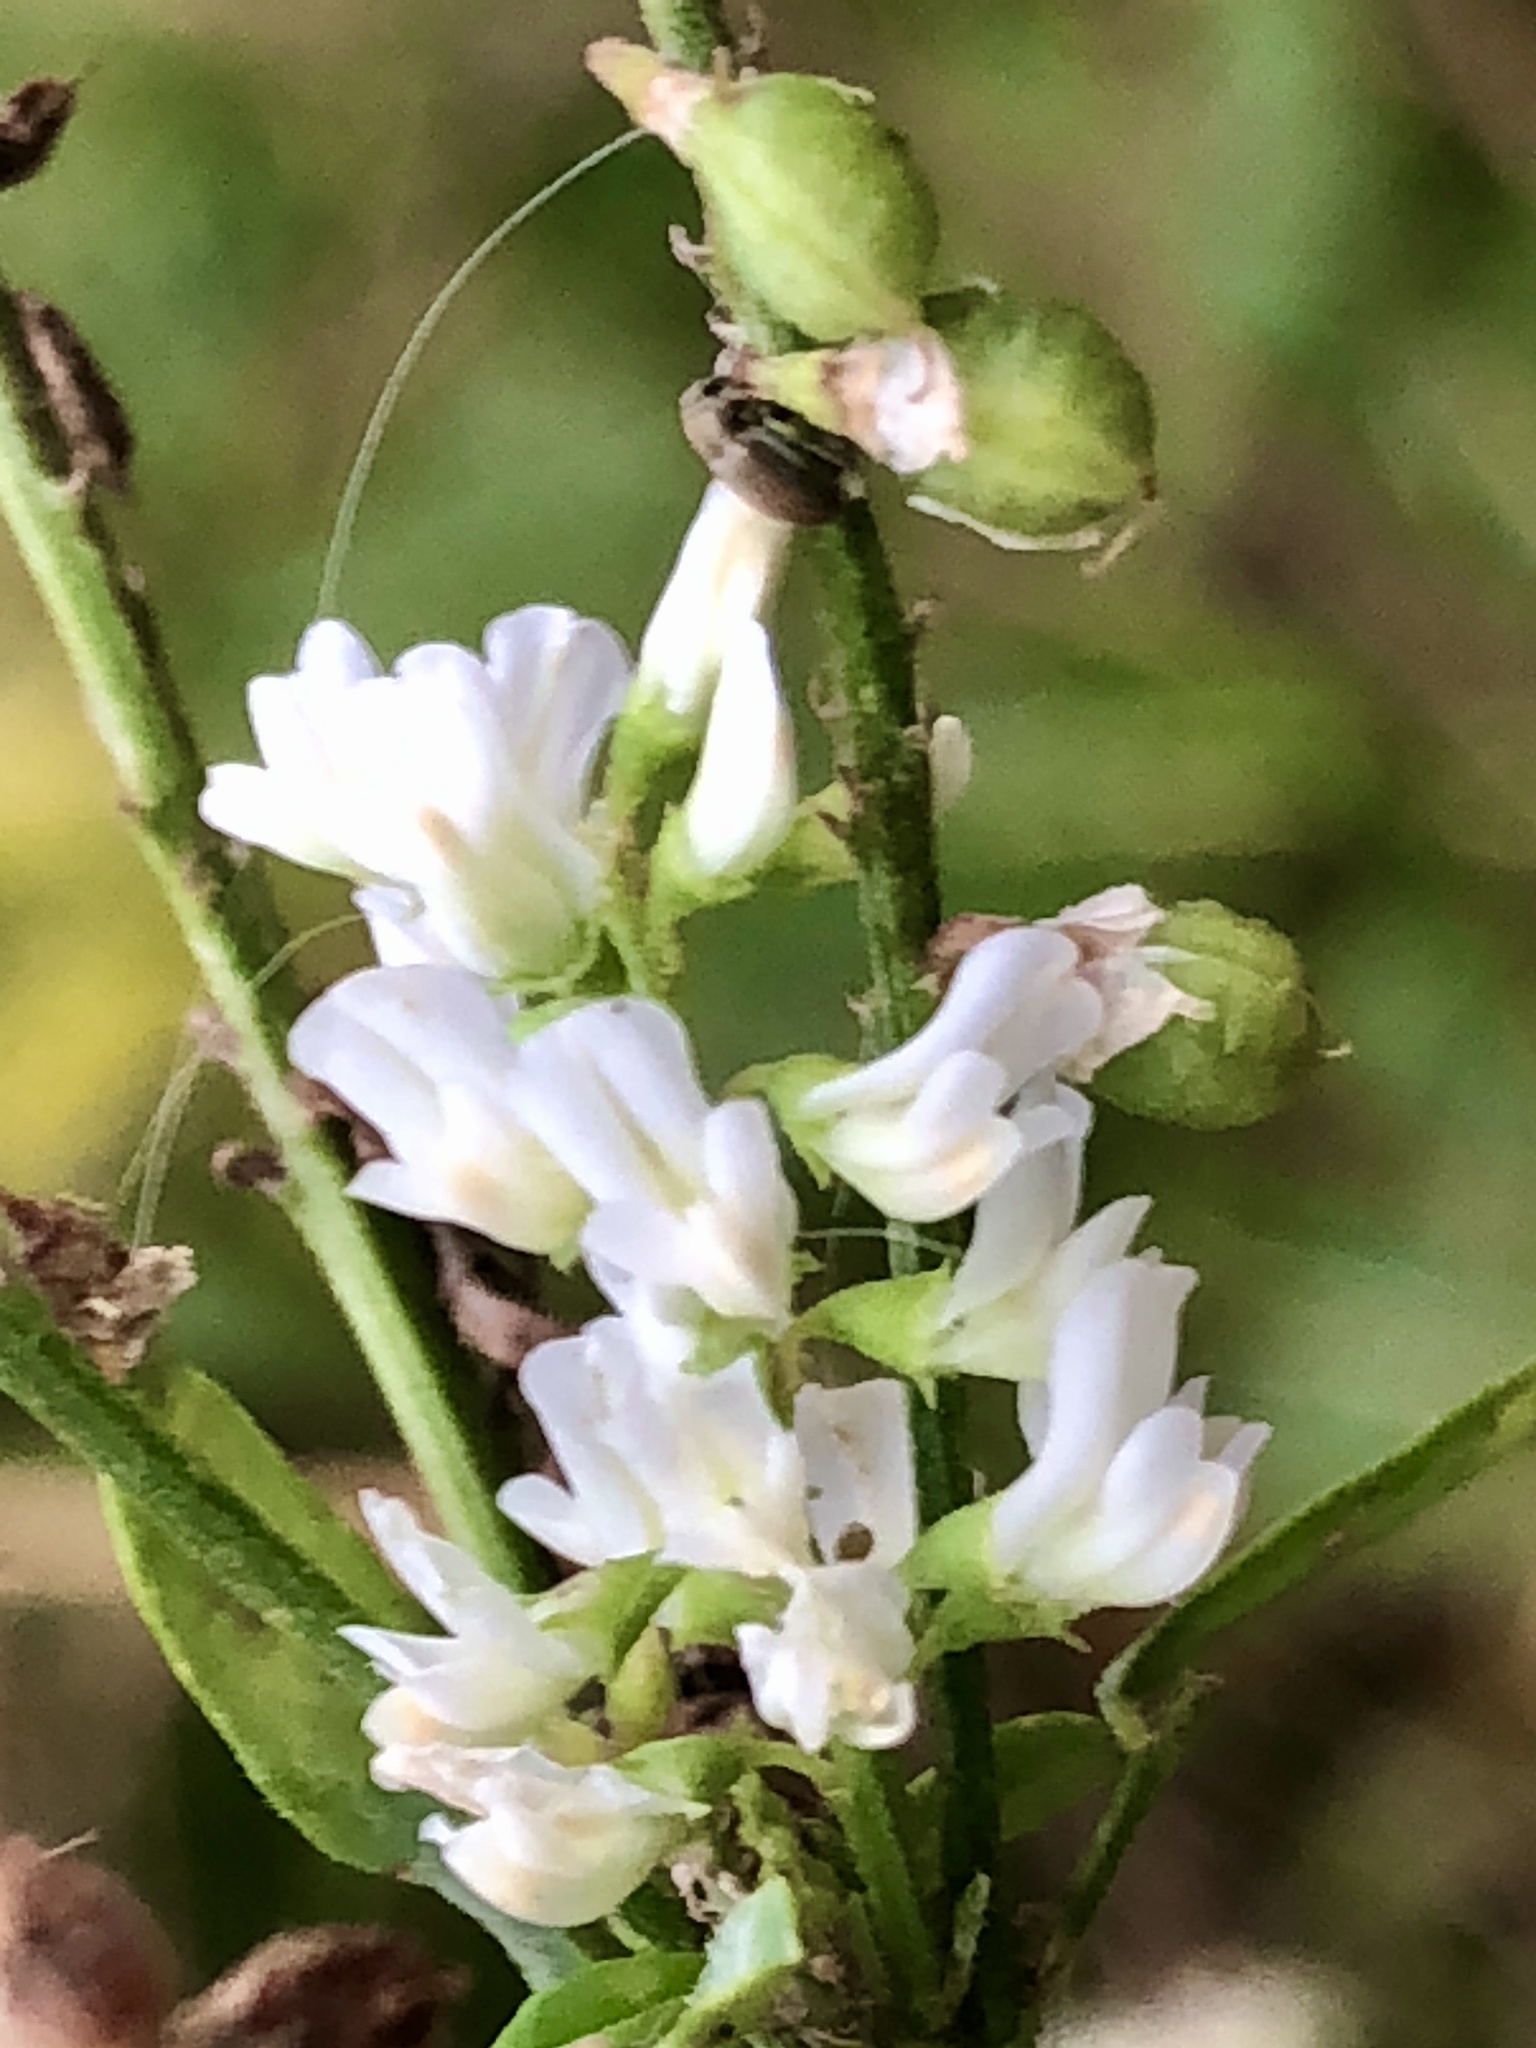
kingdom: Plantae
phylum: Tracheophyta
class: Magnoliopsida
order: Fabales
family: Fabaceae
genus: Melilotus
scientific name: Melilotus albus
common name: White melilot
